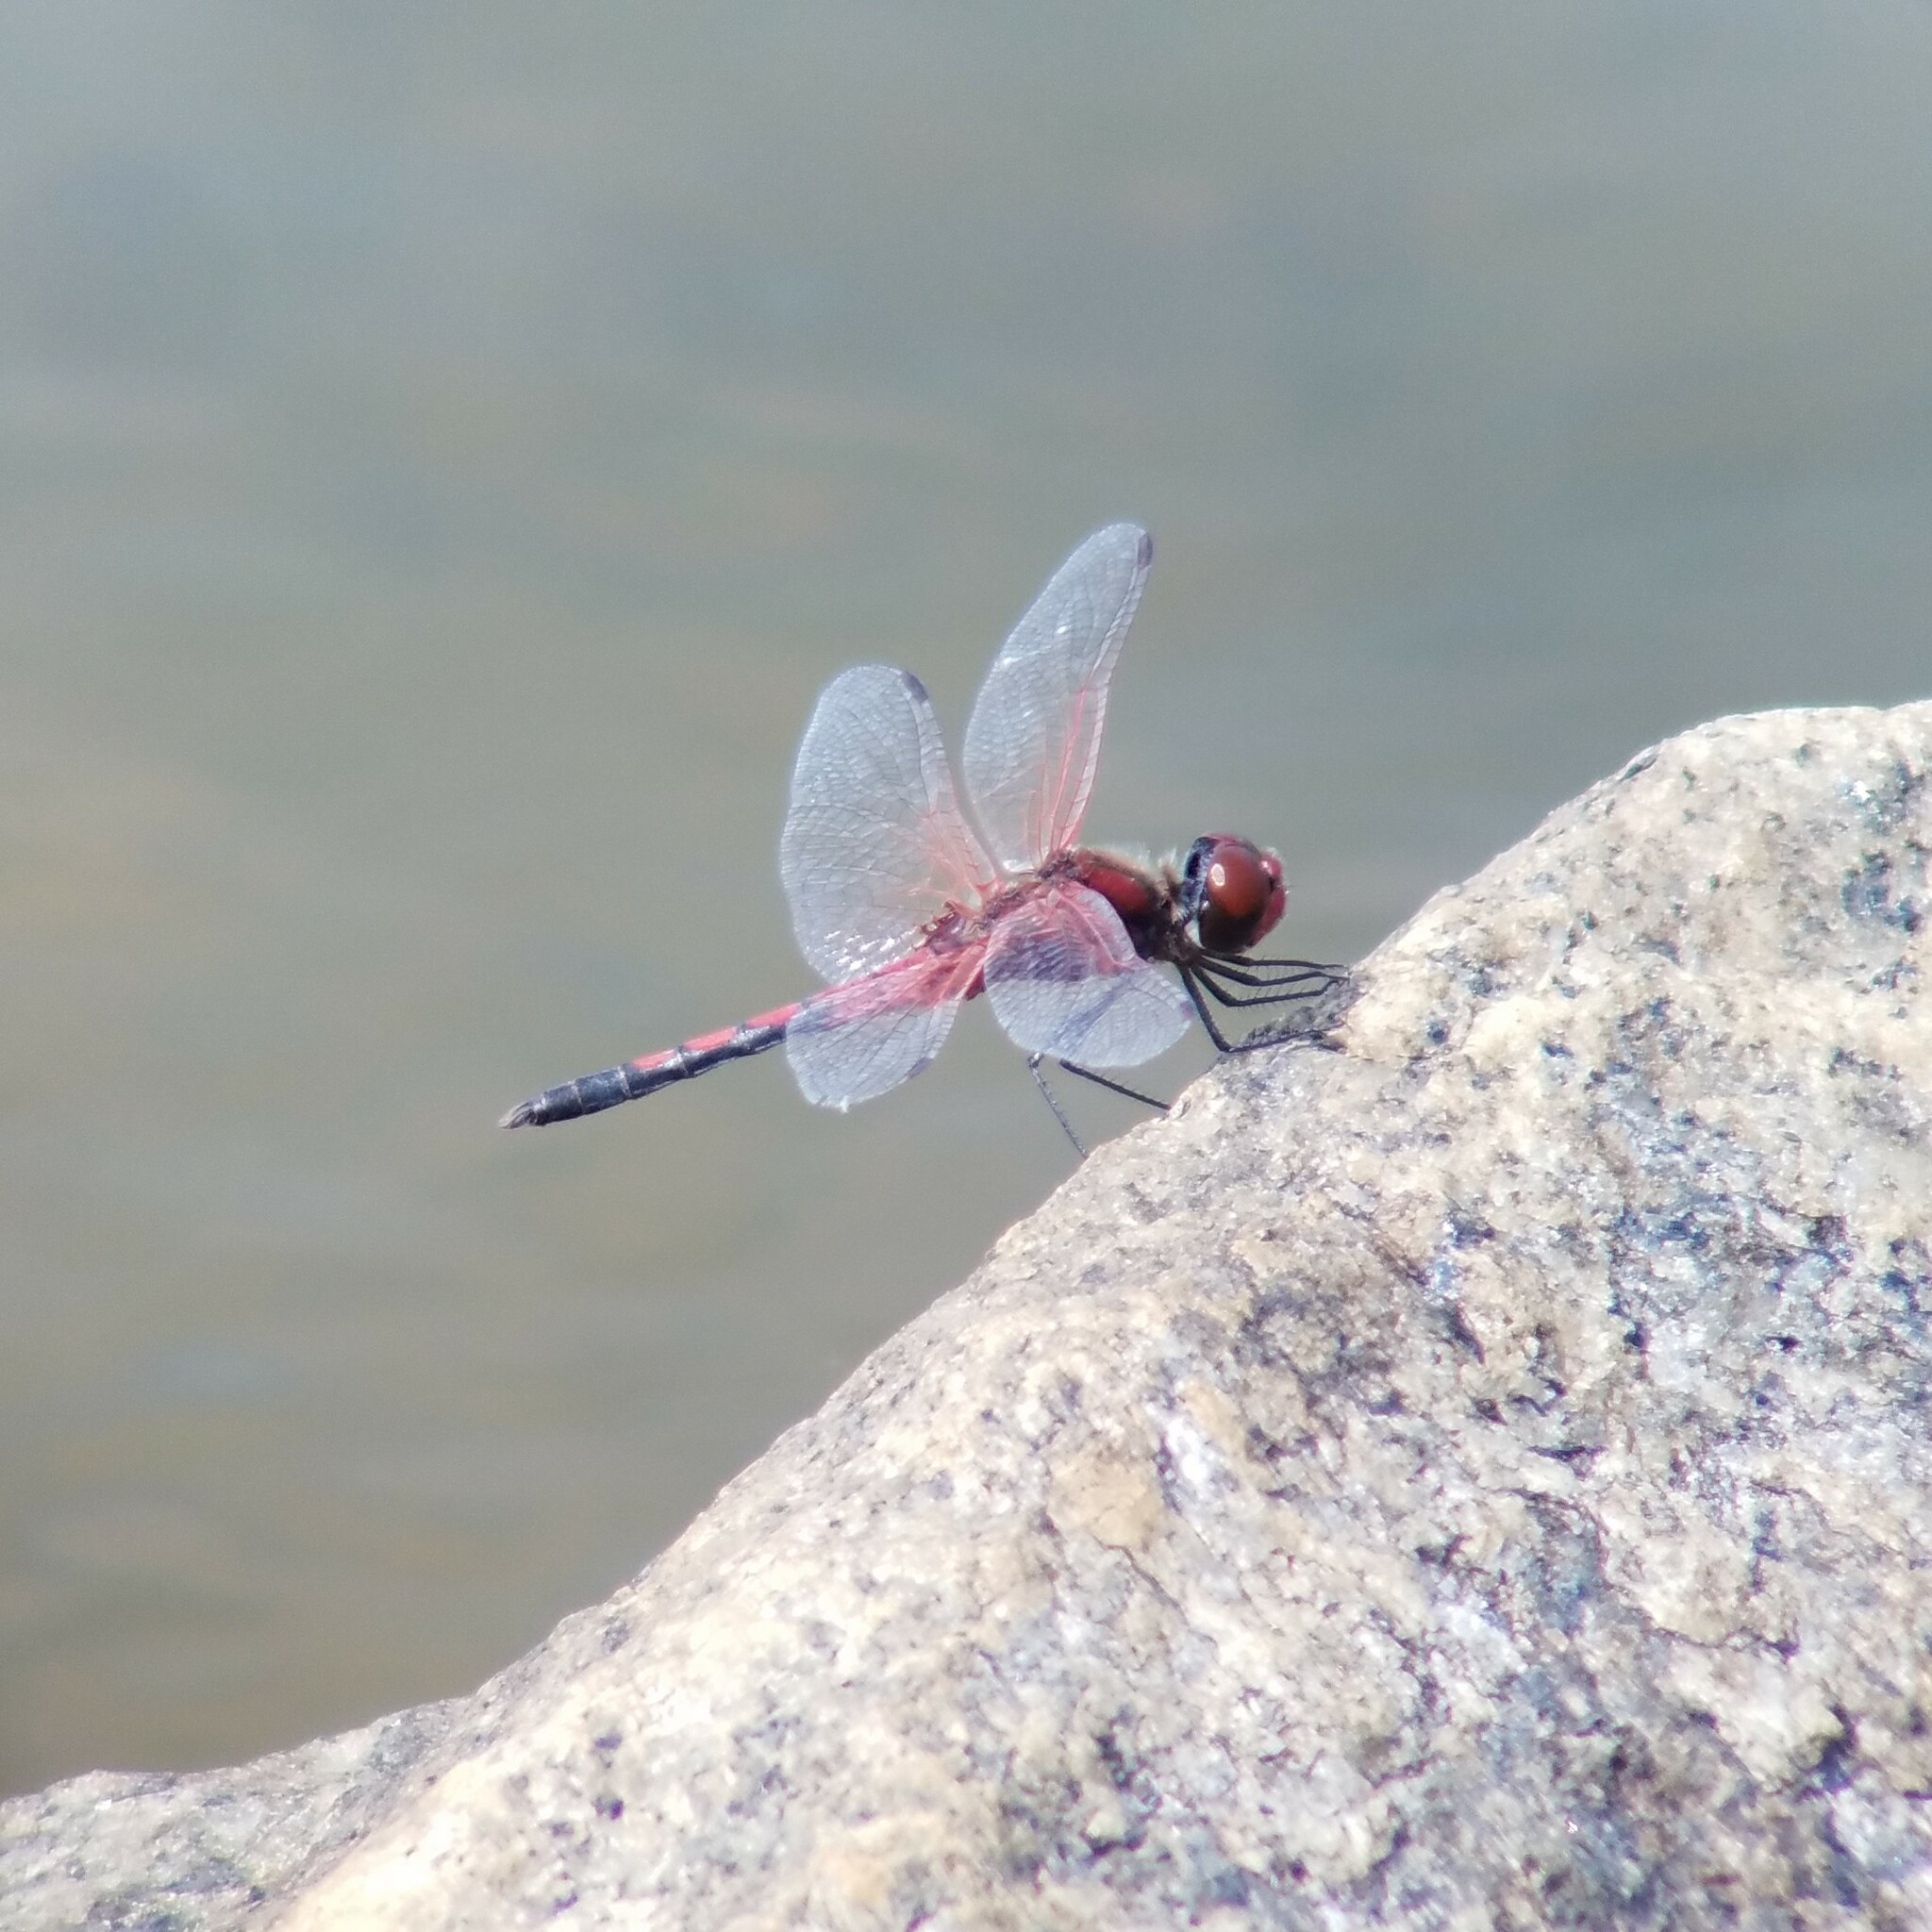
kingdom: Animalia
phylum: Arthropoda
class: Insecta
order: Odonata
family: Libellulidae
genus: Celithemis
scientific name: Celithemis bertha
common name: Red-veined pennant
